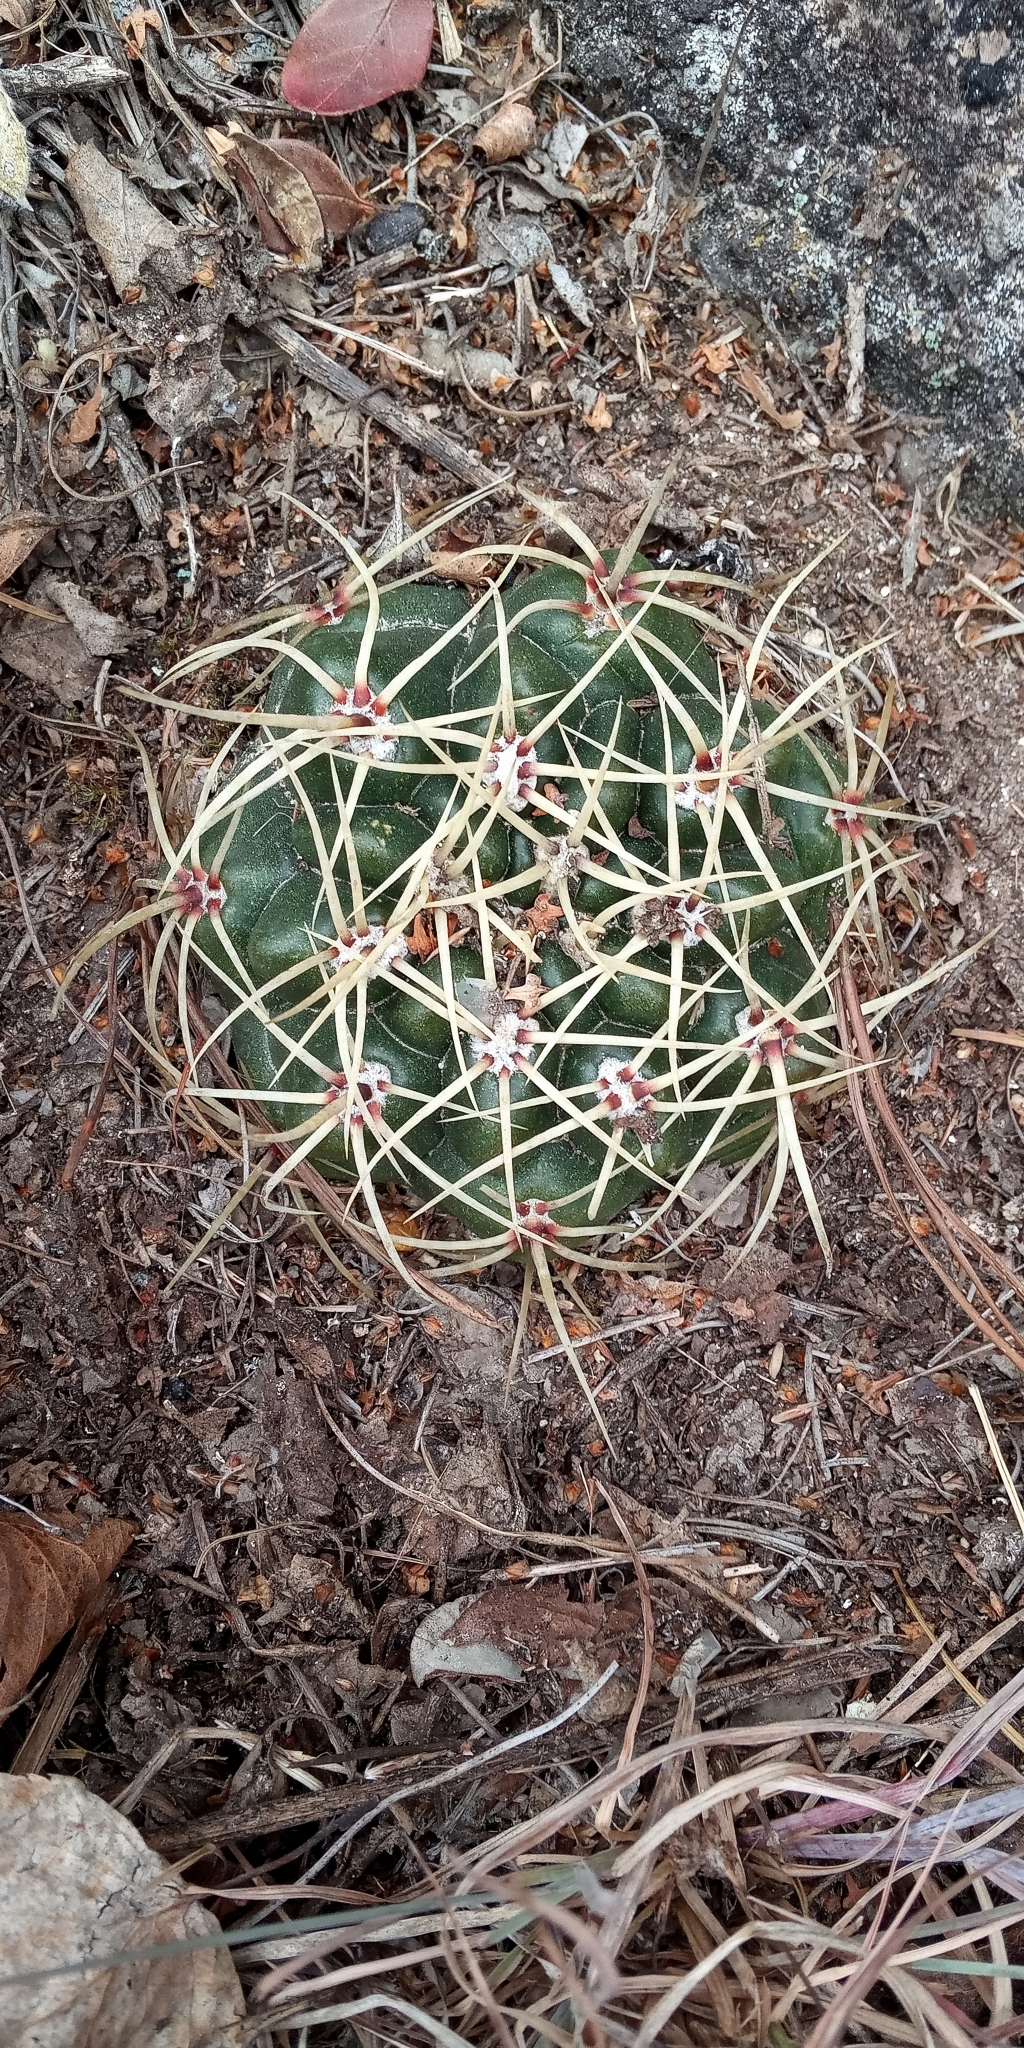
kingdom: Plantae
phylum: Tracheophyta
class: Magnoliopsida
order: Caryophyllales
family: Cactaceae
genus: Gymnocalycium
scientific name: Gymnocalycium monvillei
